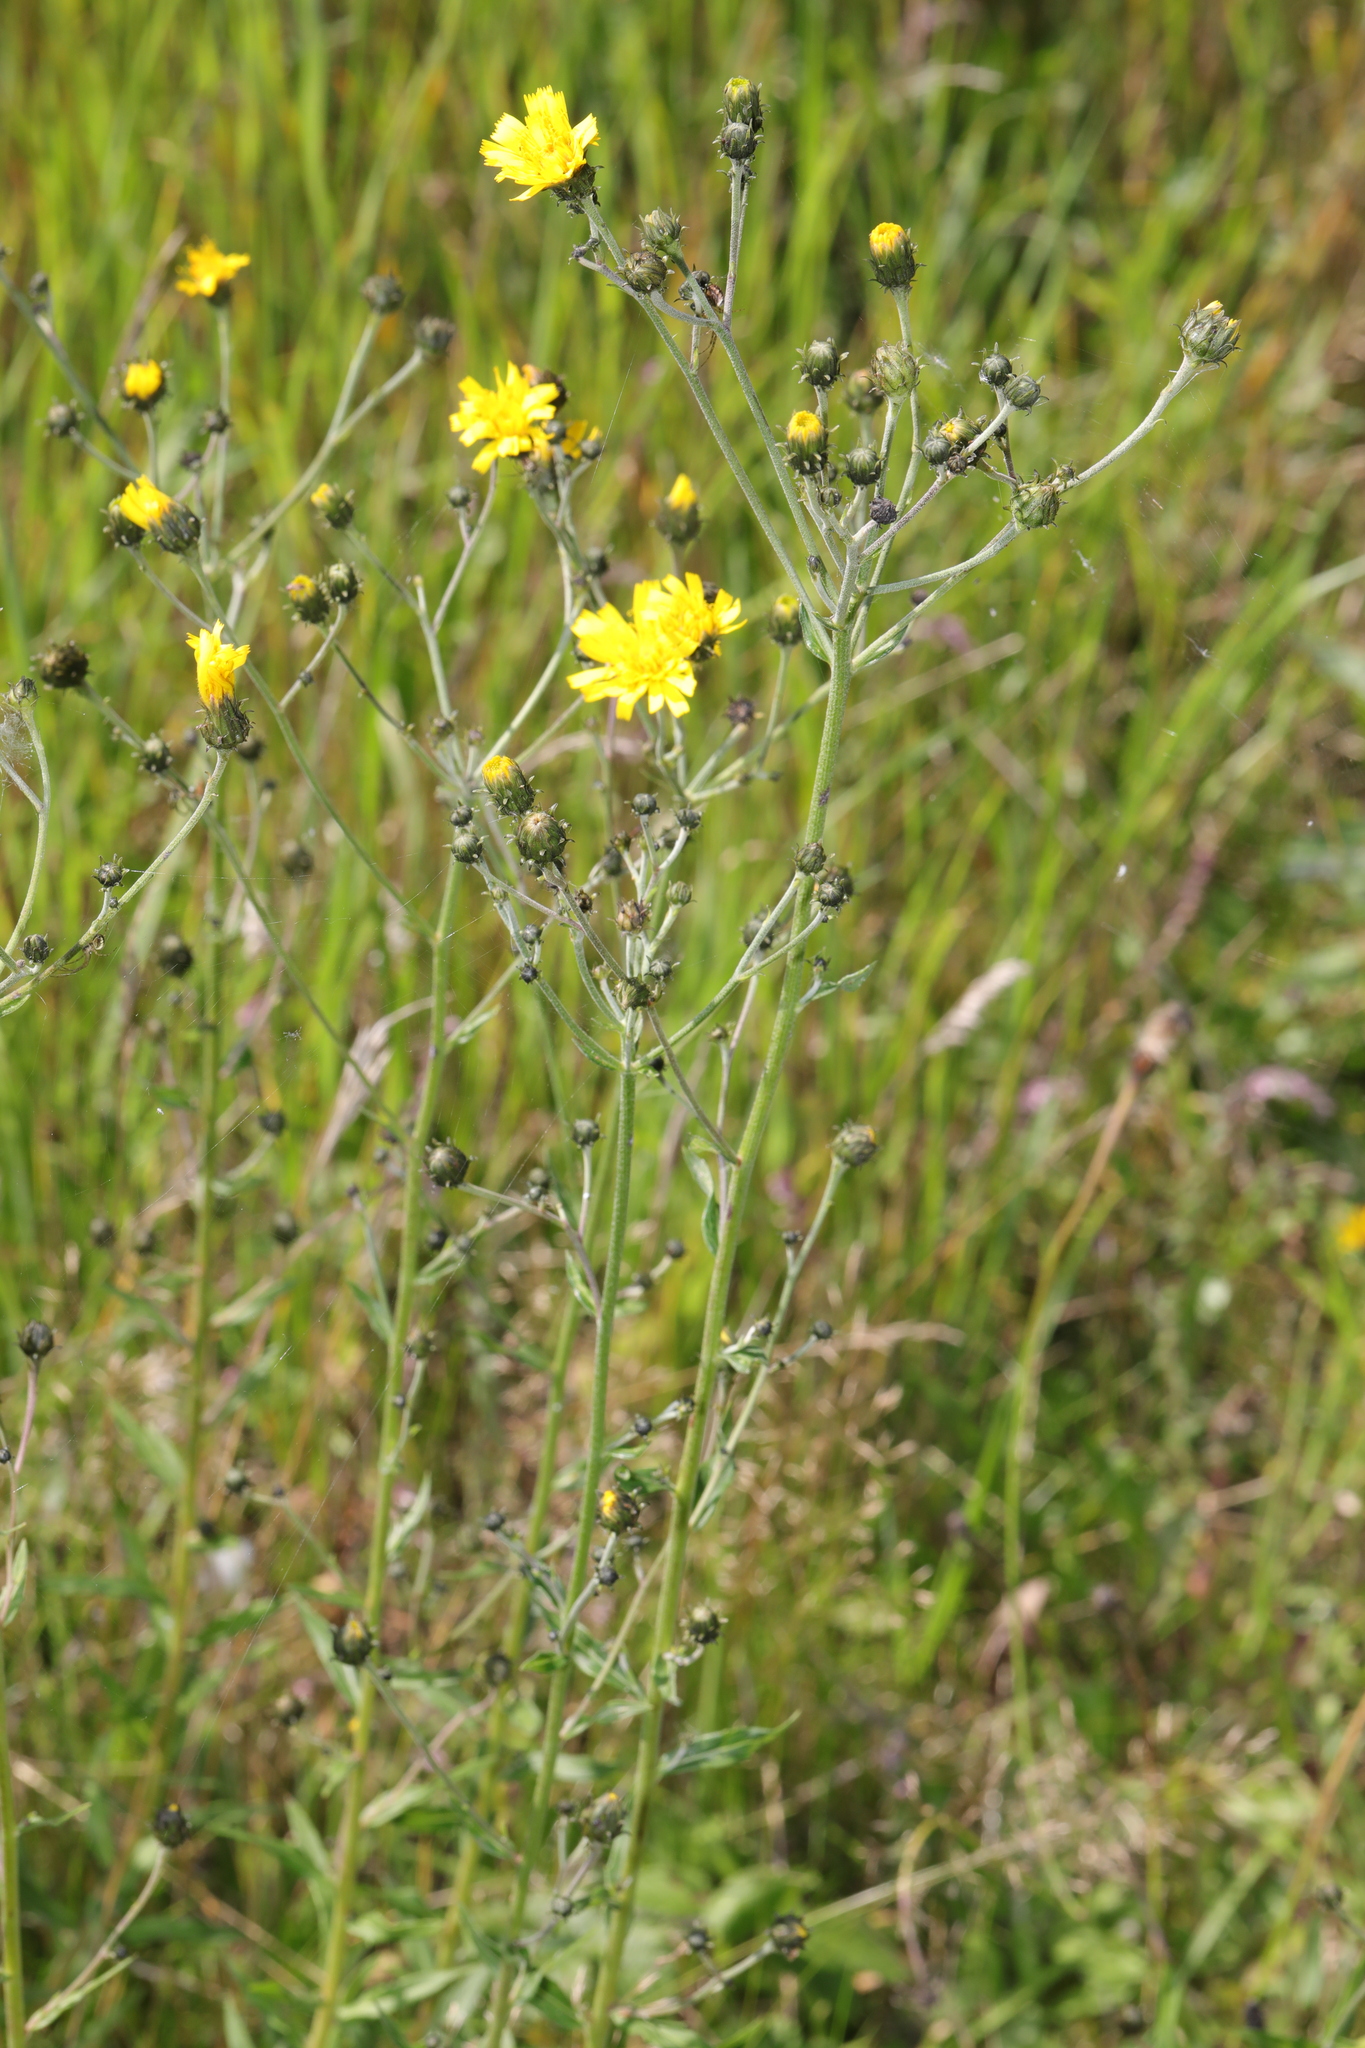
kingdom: Plantae
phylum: Tracheophyta
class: Magnoliopsida
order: Asterales
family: Asteraceae
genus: Hieracium
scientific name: Hieracium sabaudum
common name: New england hawkweed
